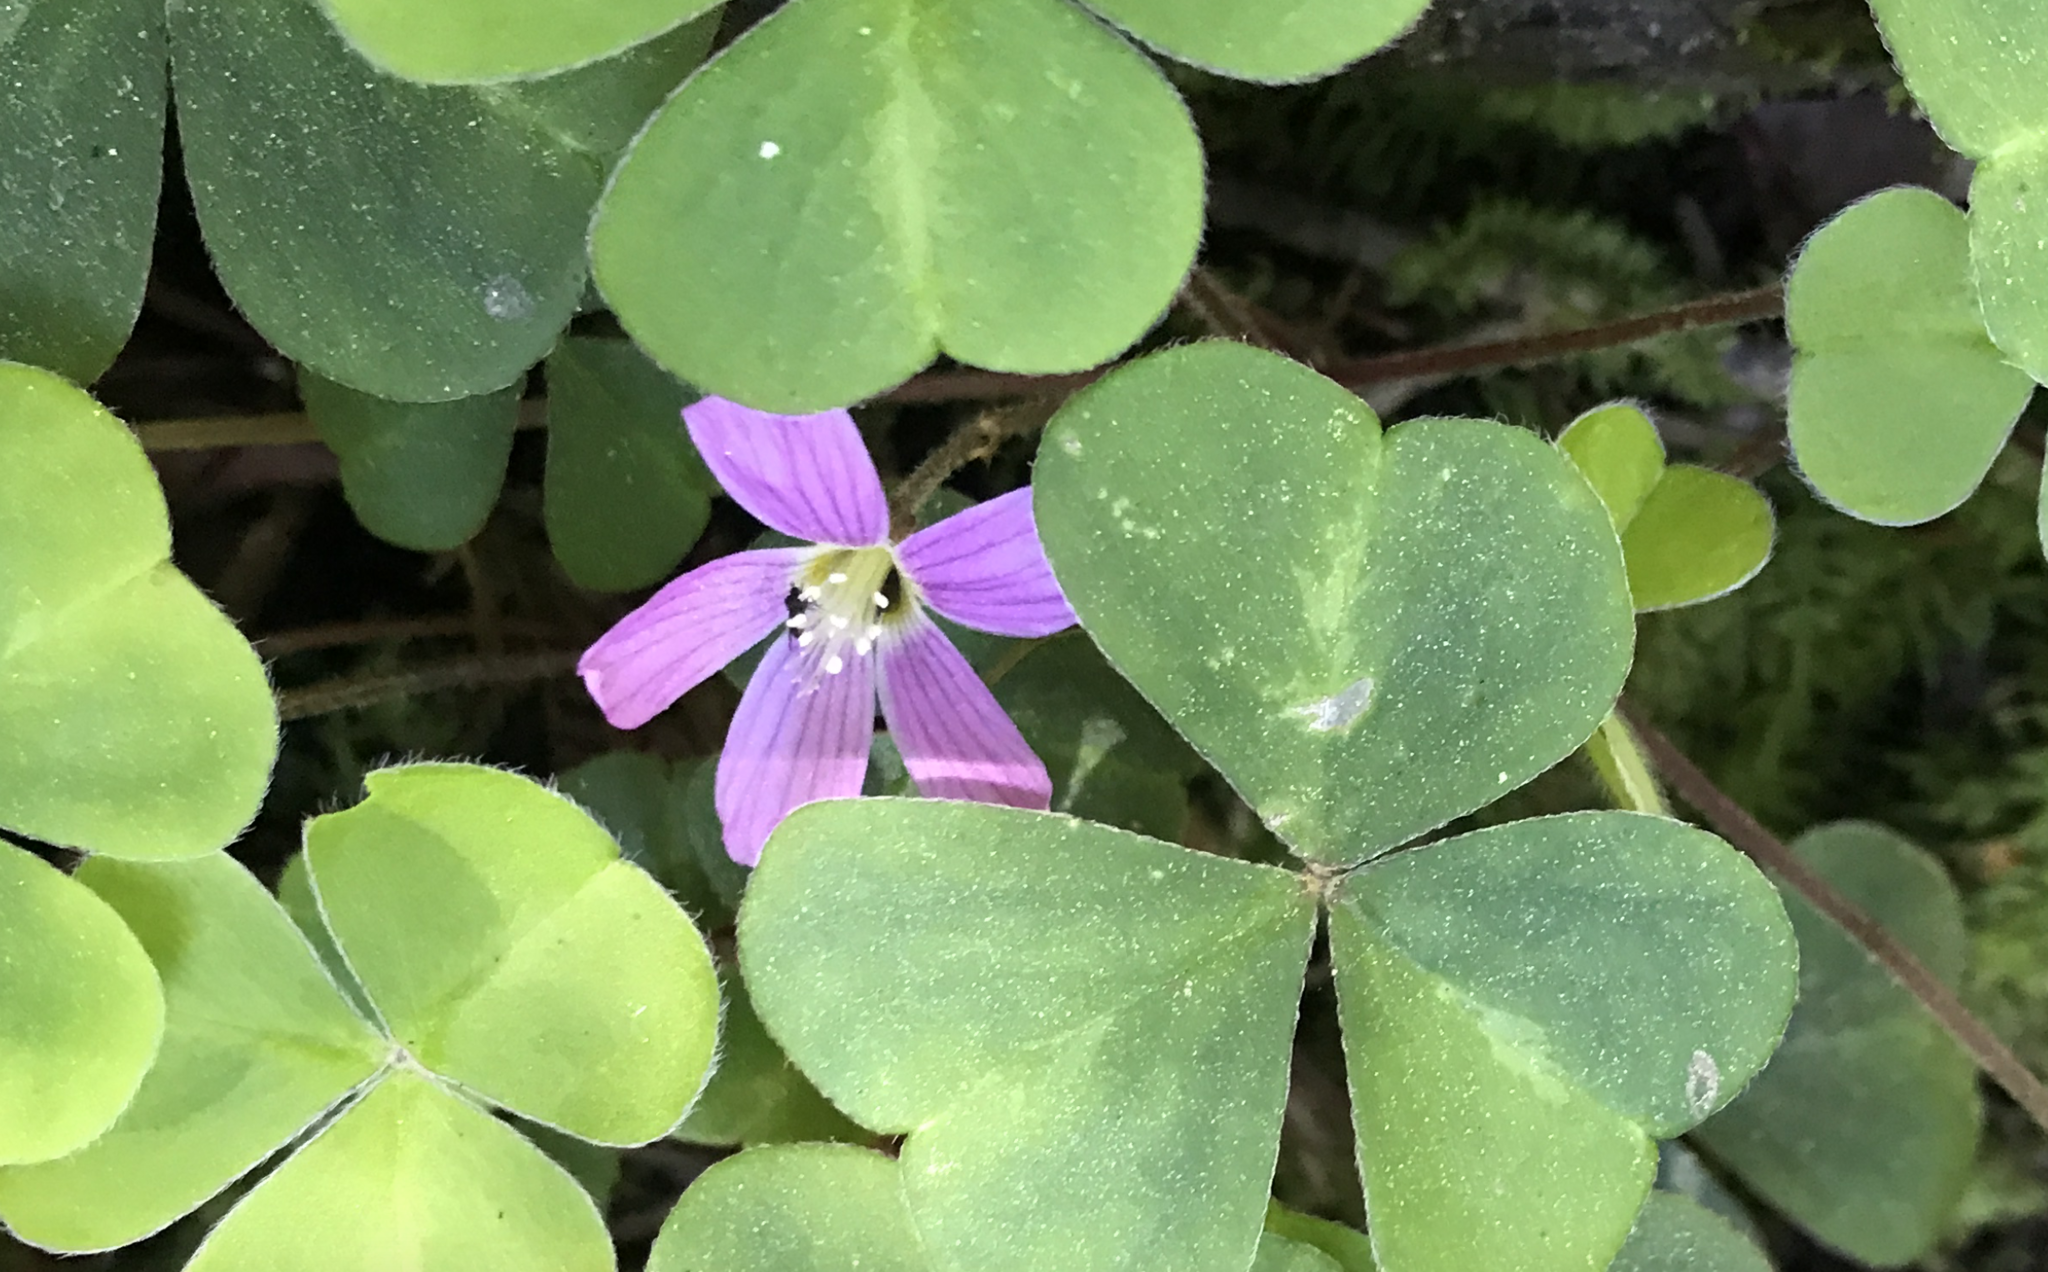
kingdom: Plantae
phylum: Tracheophyta
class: Magnoliopsida
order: Oxalidales
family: Oxalidaceae
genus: Oxalis
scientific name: Oxalis oregana
